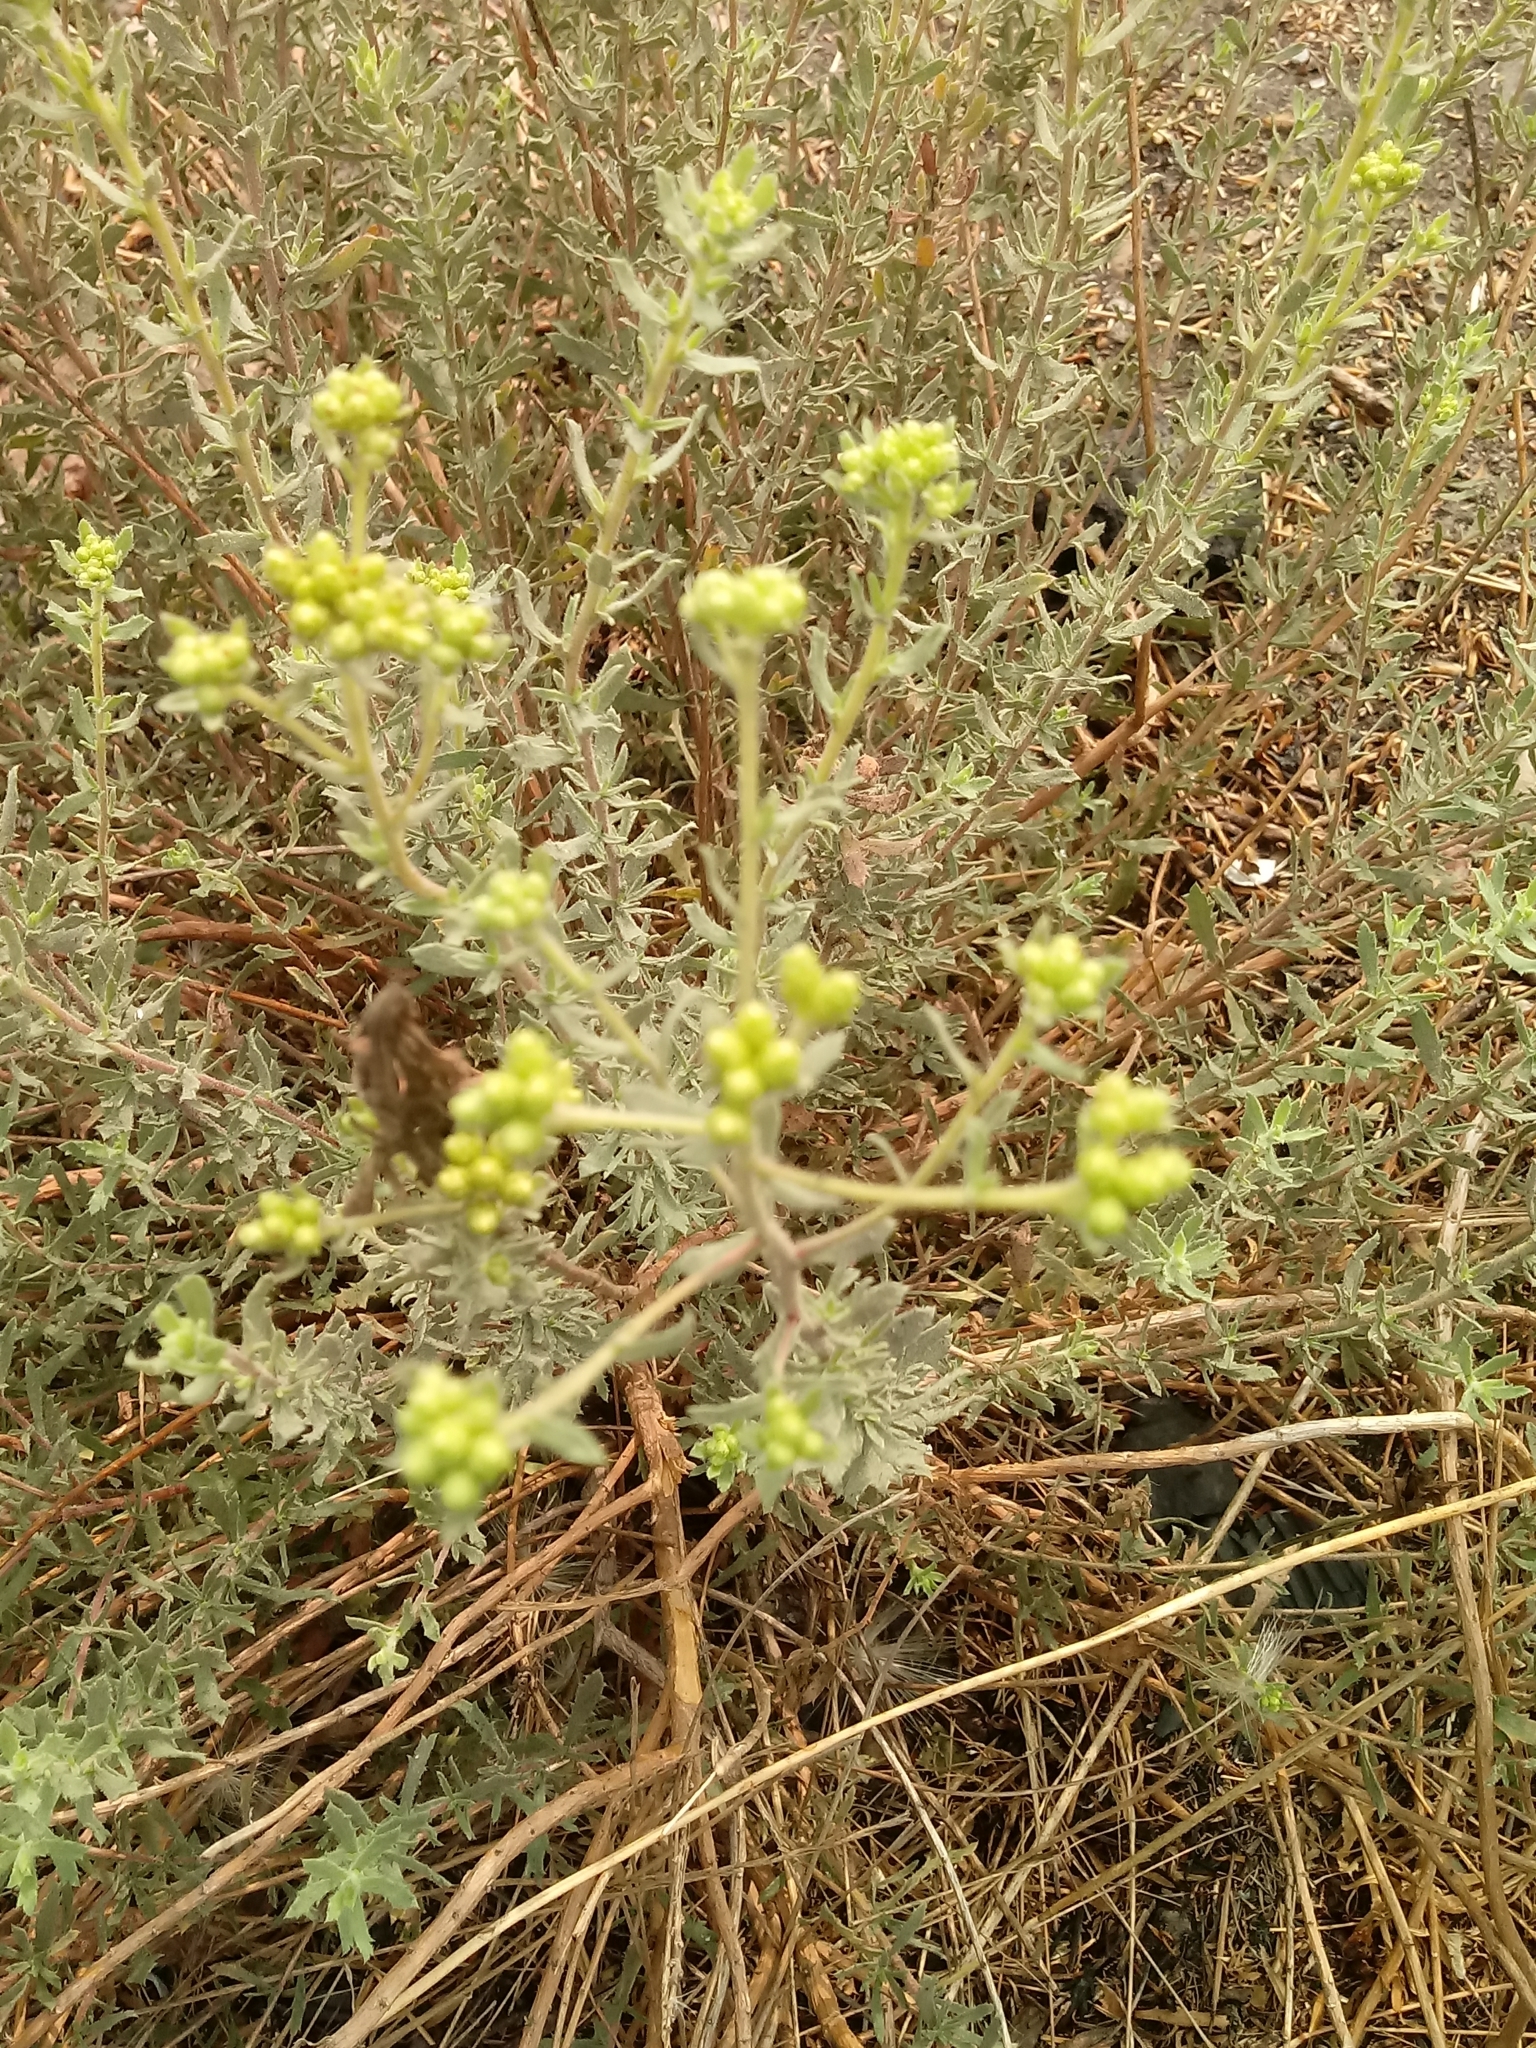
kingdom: Plantae
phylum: Tracheophyta
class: Magnoliopsida
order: Asterales
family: Asteraceae
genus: Isocoma
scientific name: Isocoma menziesii
